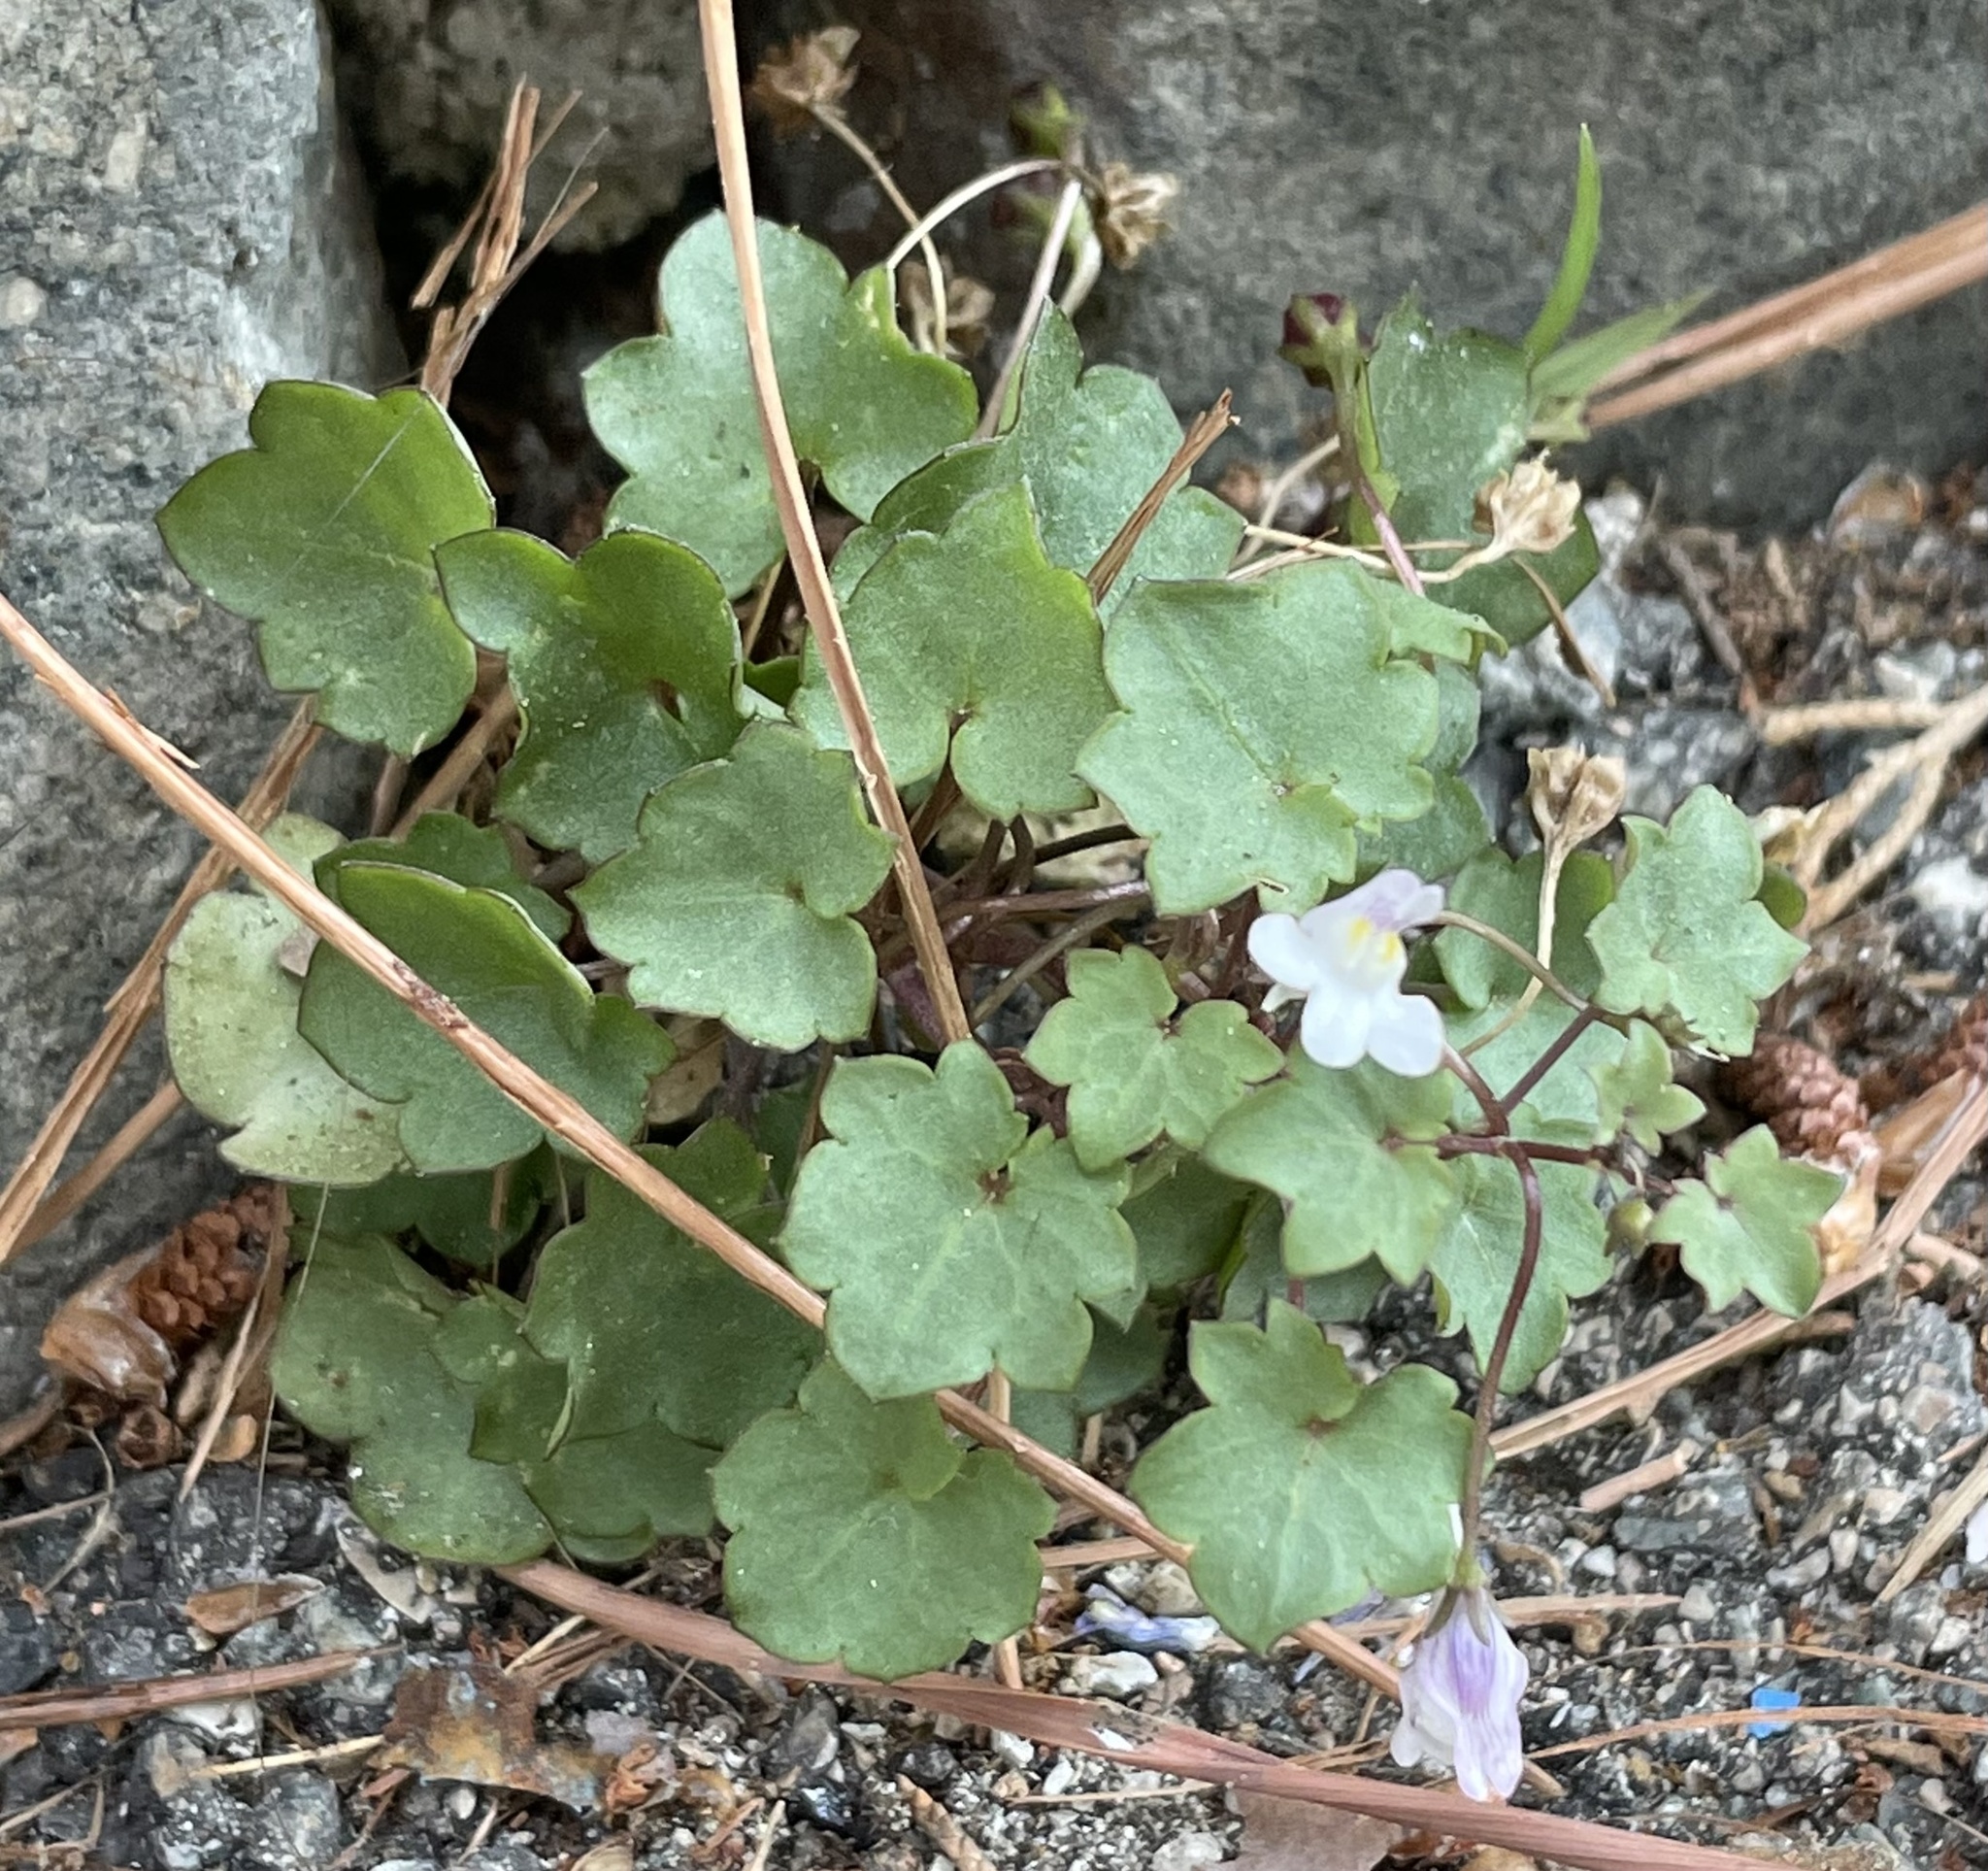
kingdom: Plantae
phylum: Tracheophyta
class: Magnoliopsida
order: Lamiales
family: Plantaginaceae
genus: Cymbalaria
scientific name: Cymbalaria muralis
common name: Ivy-leaved toadflax
